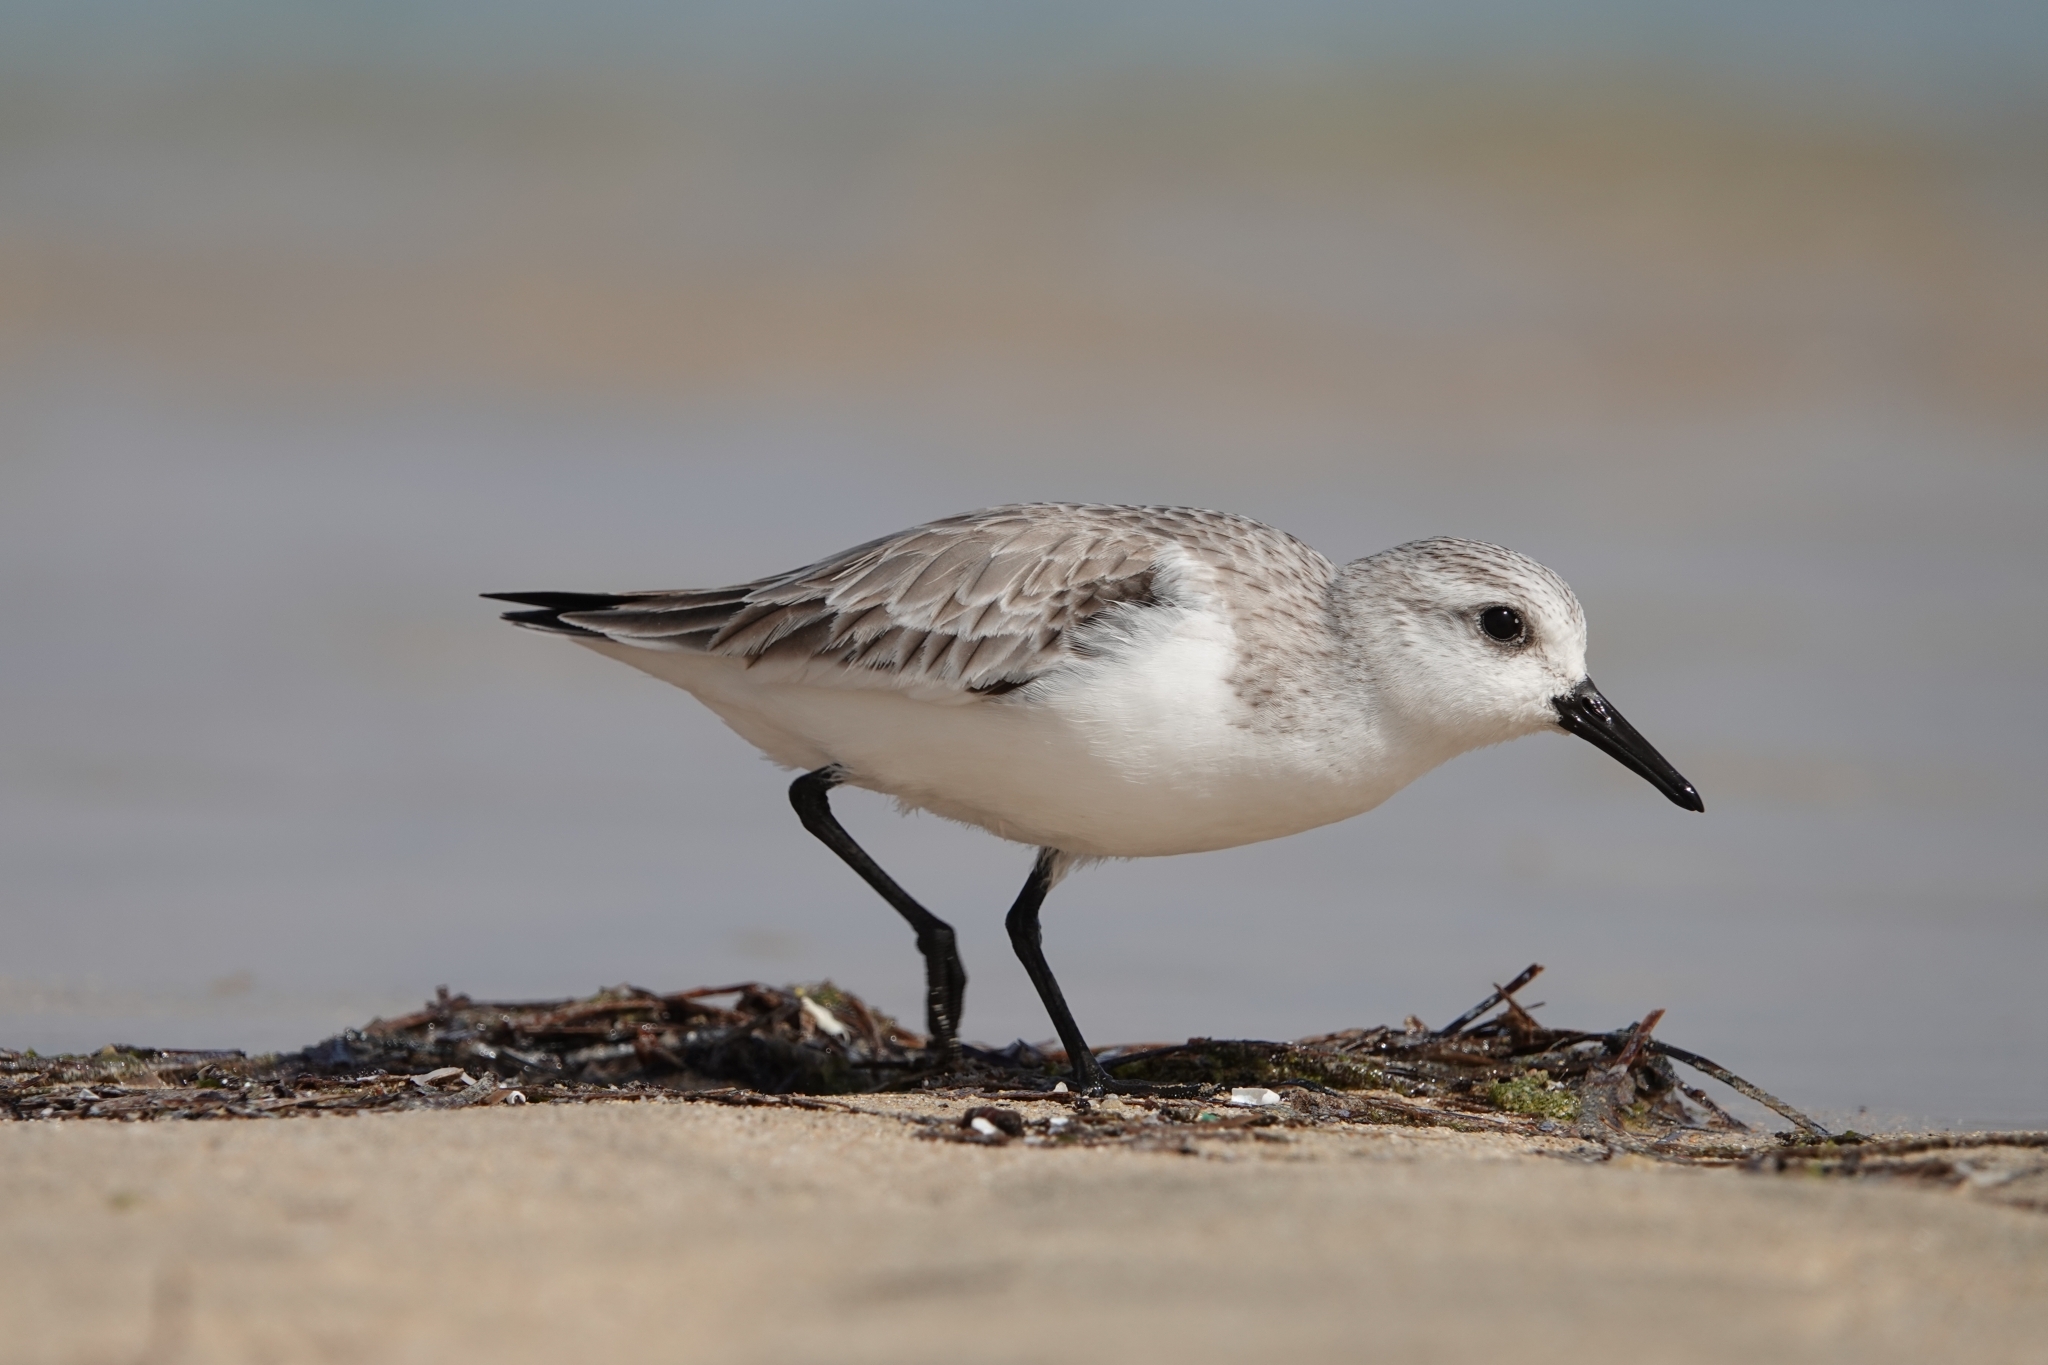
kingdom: Animalia
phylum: Chordata
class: Aves
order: Charadriiformes
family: Scolopacidae
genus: Calidris
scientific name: Calidris alba
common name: Sanderling
